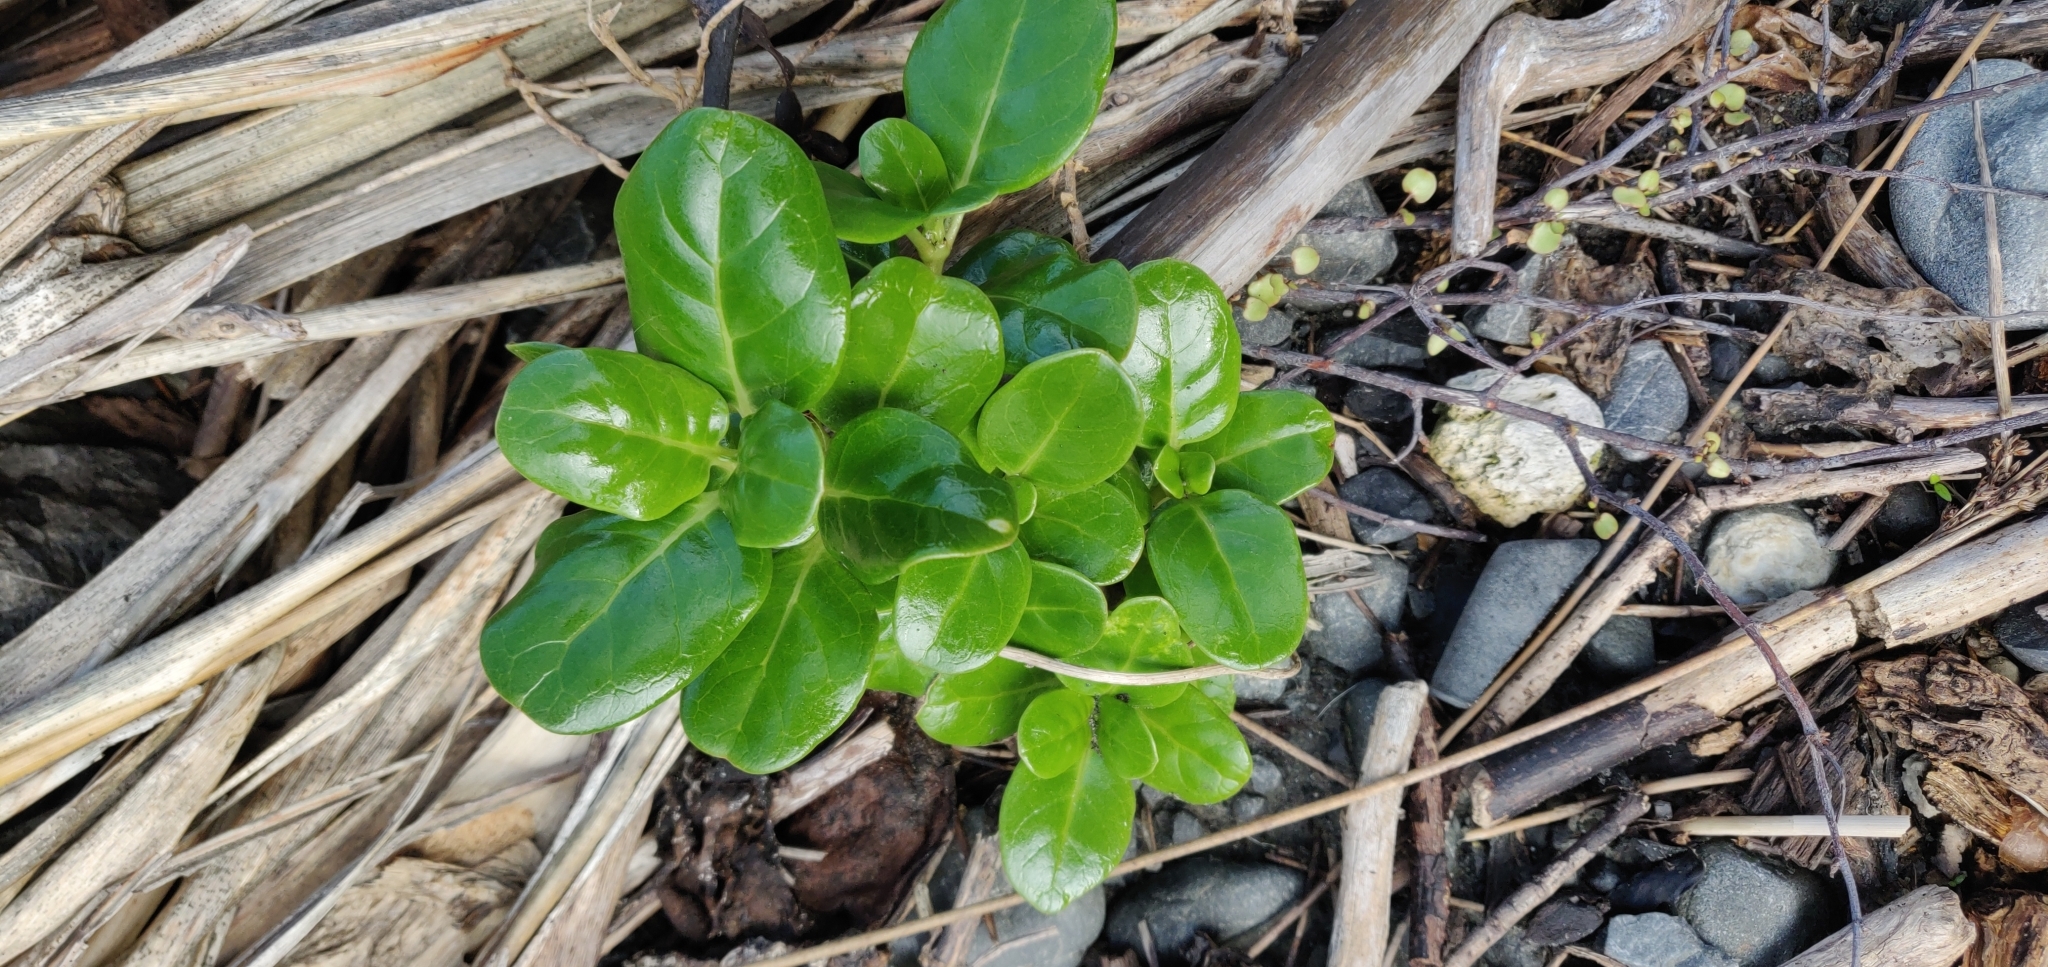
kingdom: Plantae
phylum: Tracheophyta
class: Magnoliopsida
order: Gentianales
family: Rubiaceae
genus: Coprosma
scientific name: Coprosma repens
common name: Tree bedstraw
